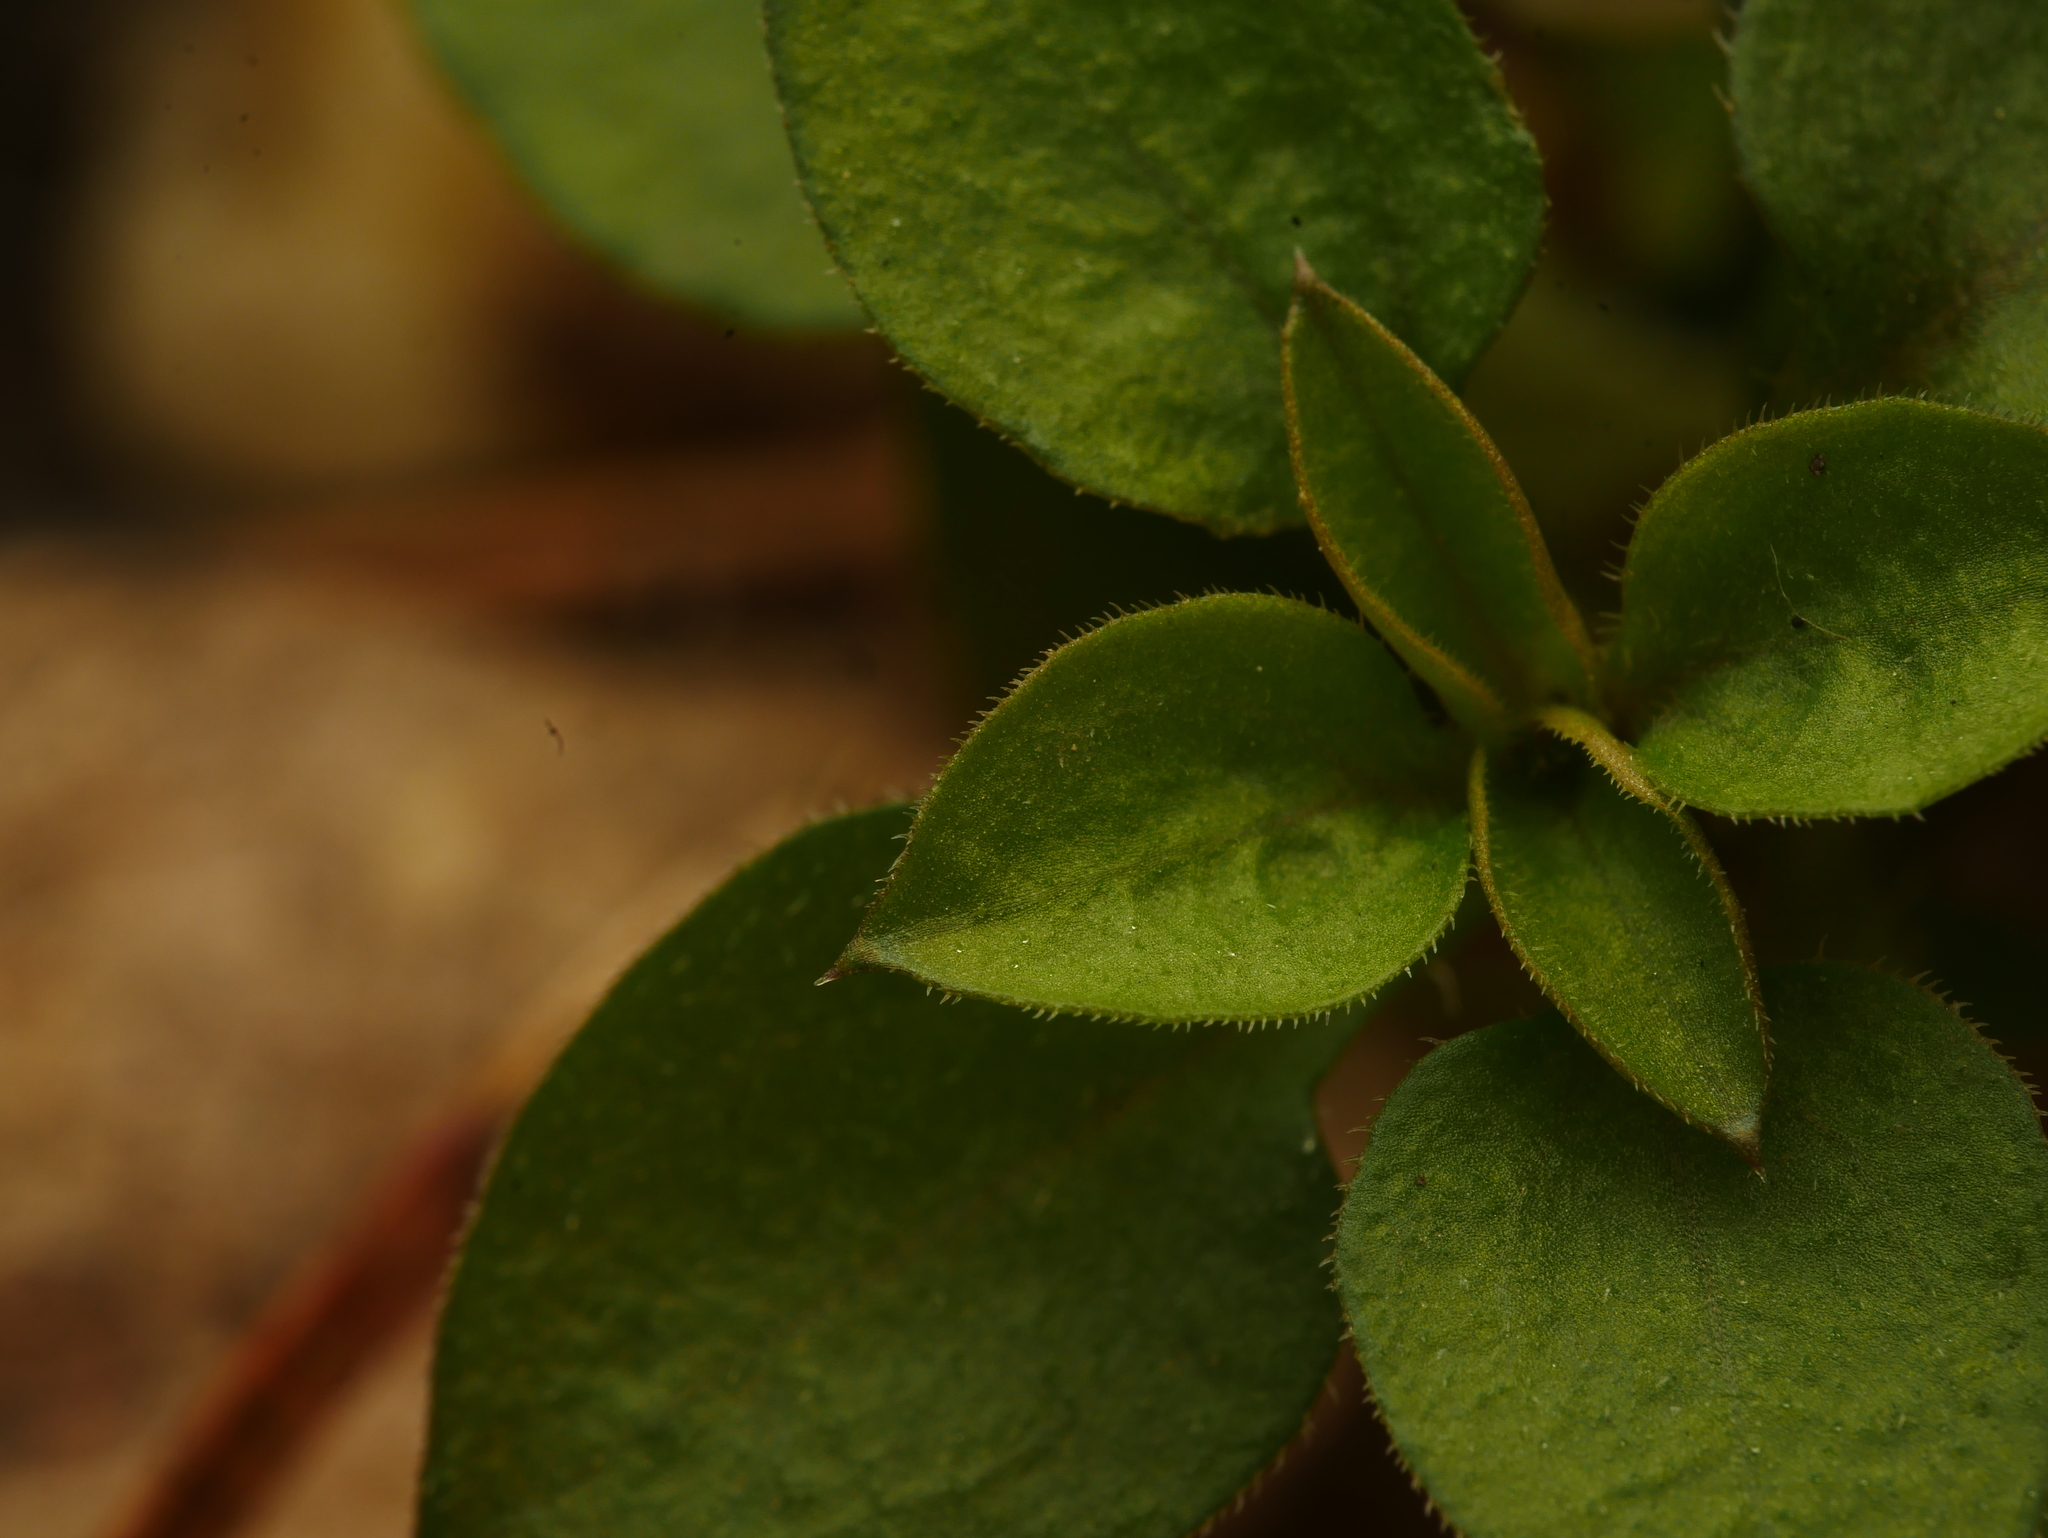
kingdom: Plantae
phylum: Tracheophyta
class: Magnoliopsida
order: Caryophyllales
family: Caryophyllaceae
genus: Moehringia
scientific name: Moehringia trinervia
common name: Three-nerved sandwort
